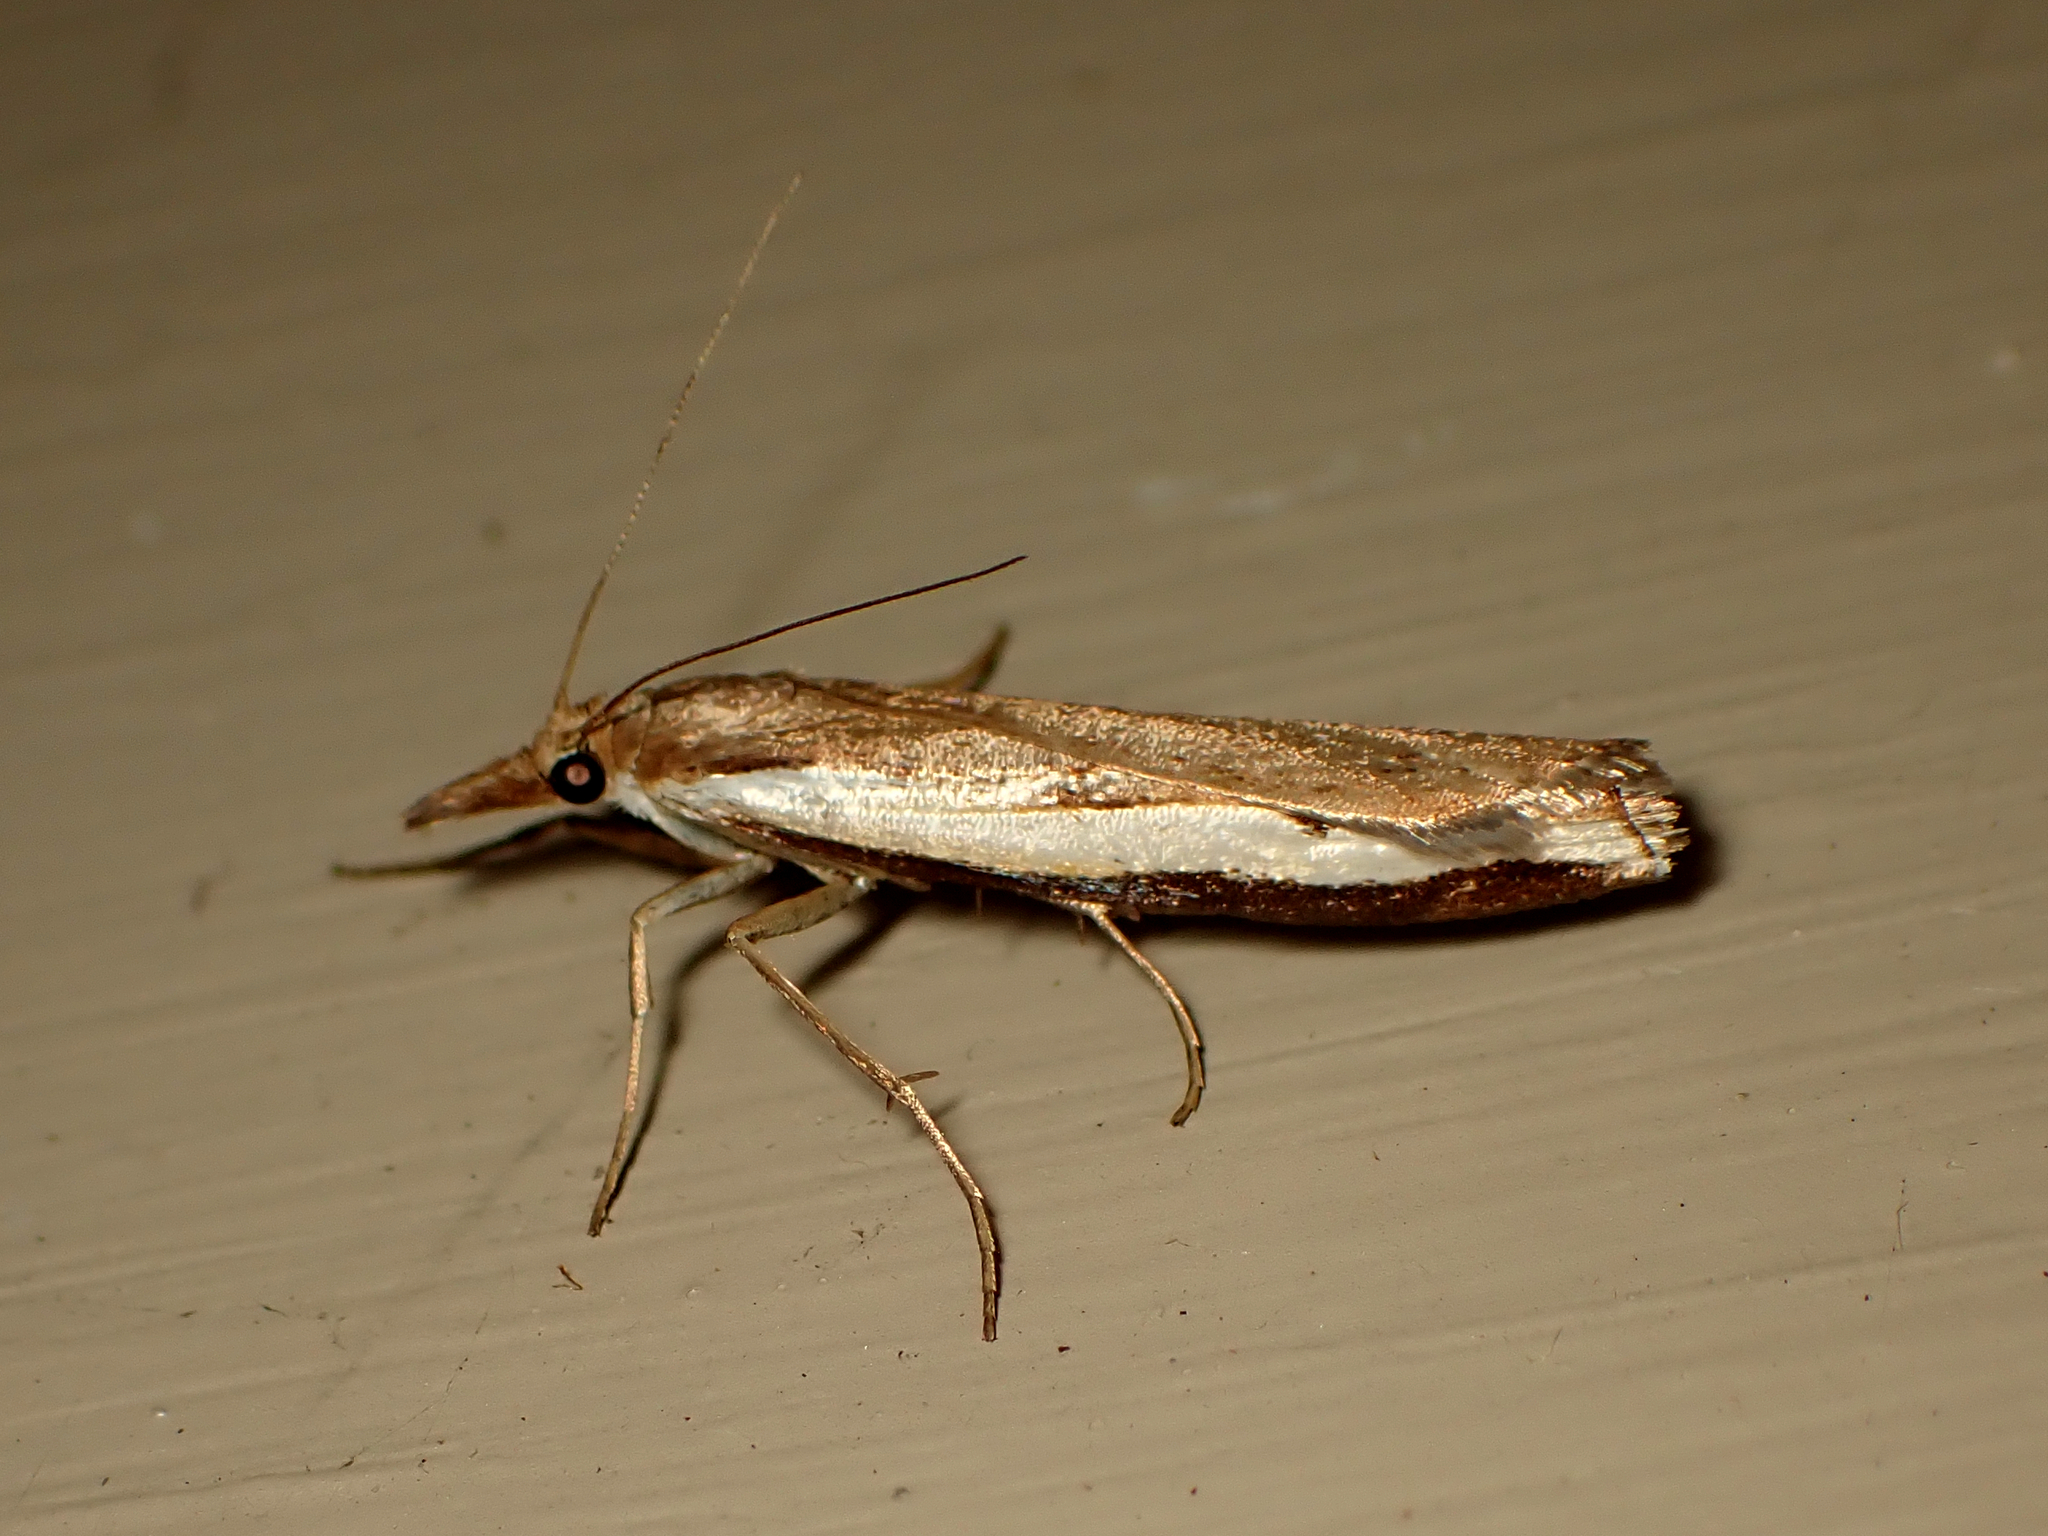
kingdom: Animalia
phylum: Arthropoda
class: Insecta
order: Lepidoptera
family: Crambidae
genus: Orocrambus
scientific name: Orocrambus flexuosellus
